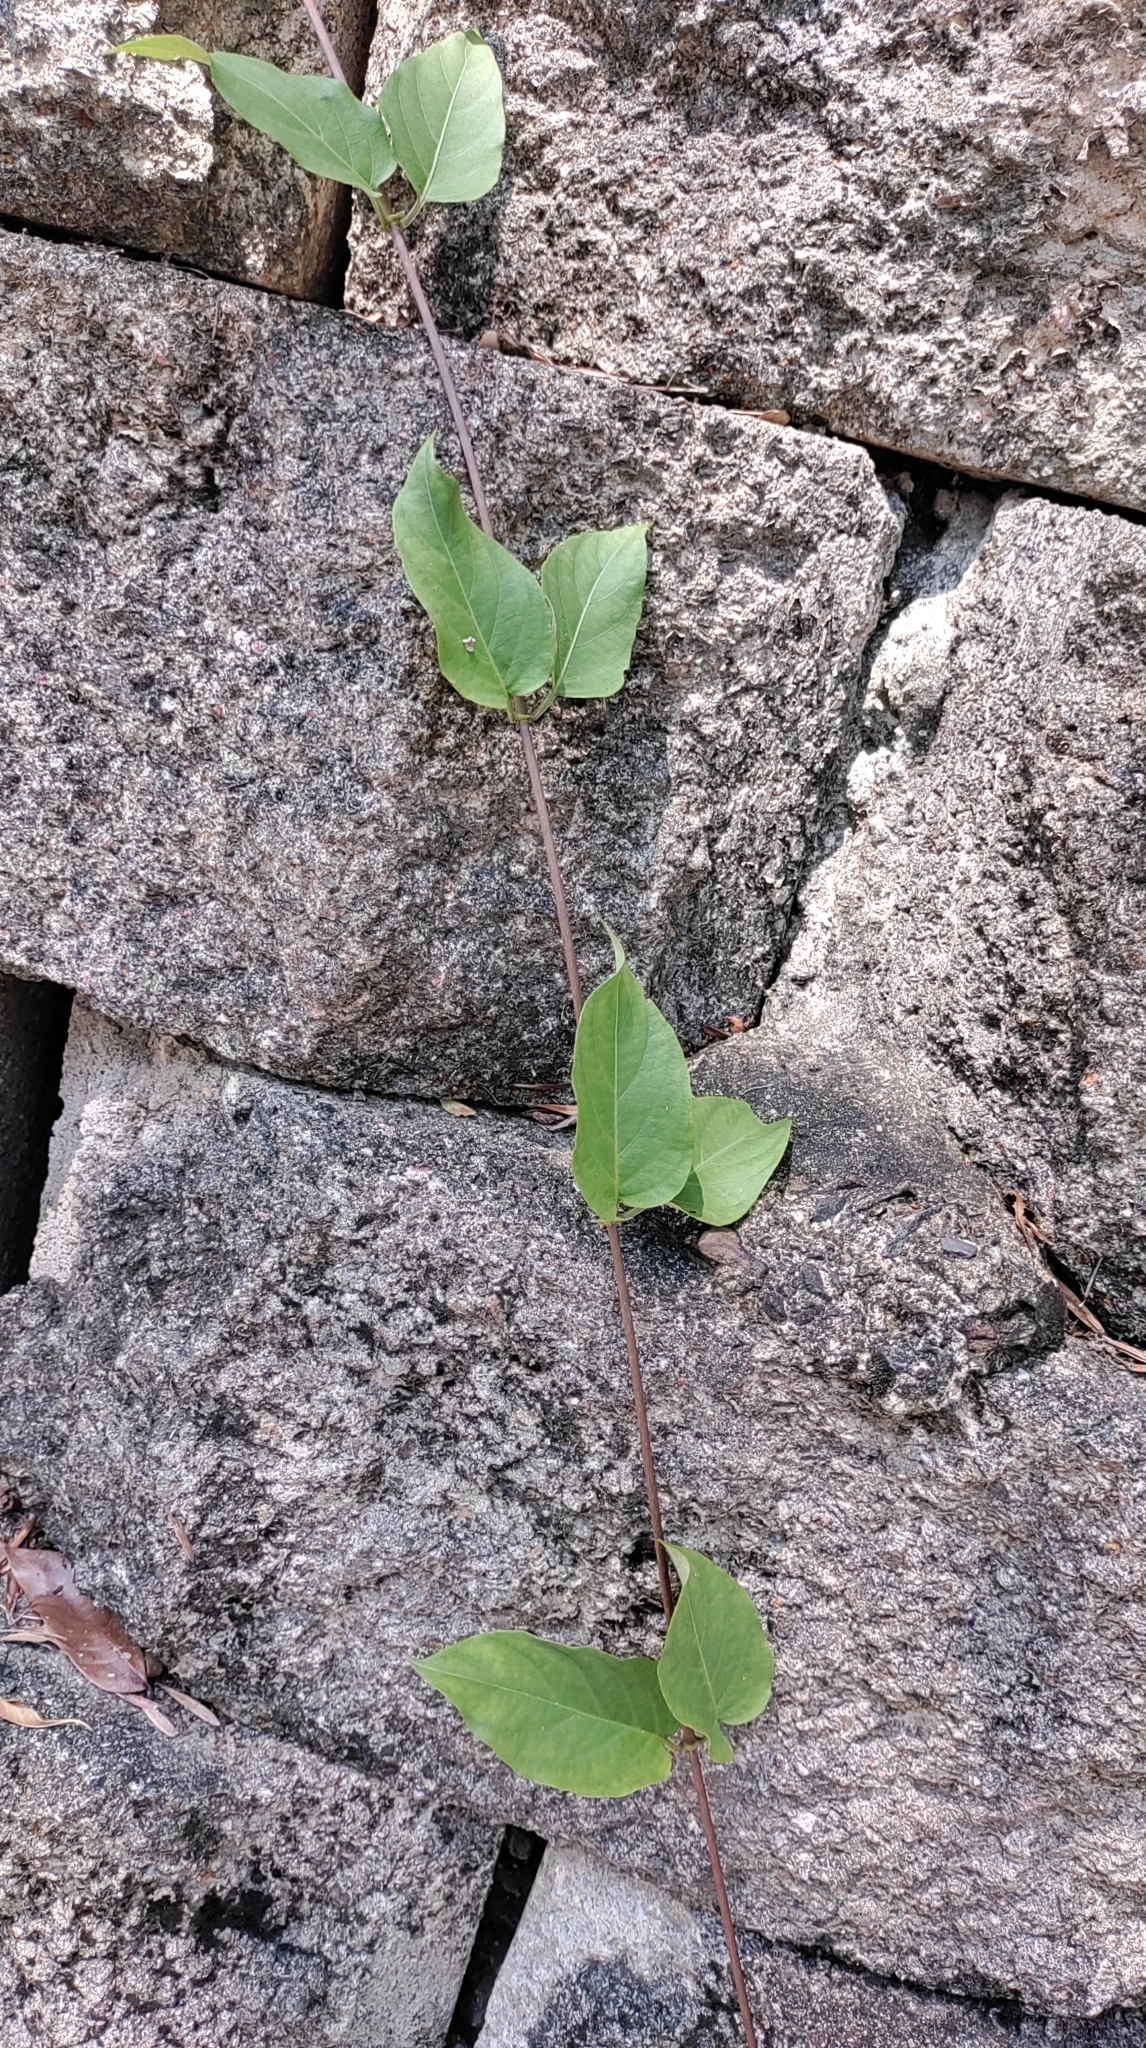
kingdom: Plantae
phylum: Tracheophyta
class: Magnoliopsida
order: Gentianales
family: Rubiaceae
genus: Paederia
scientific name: Paederia foetida
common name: Stinkvine
